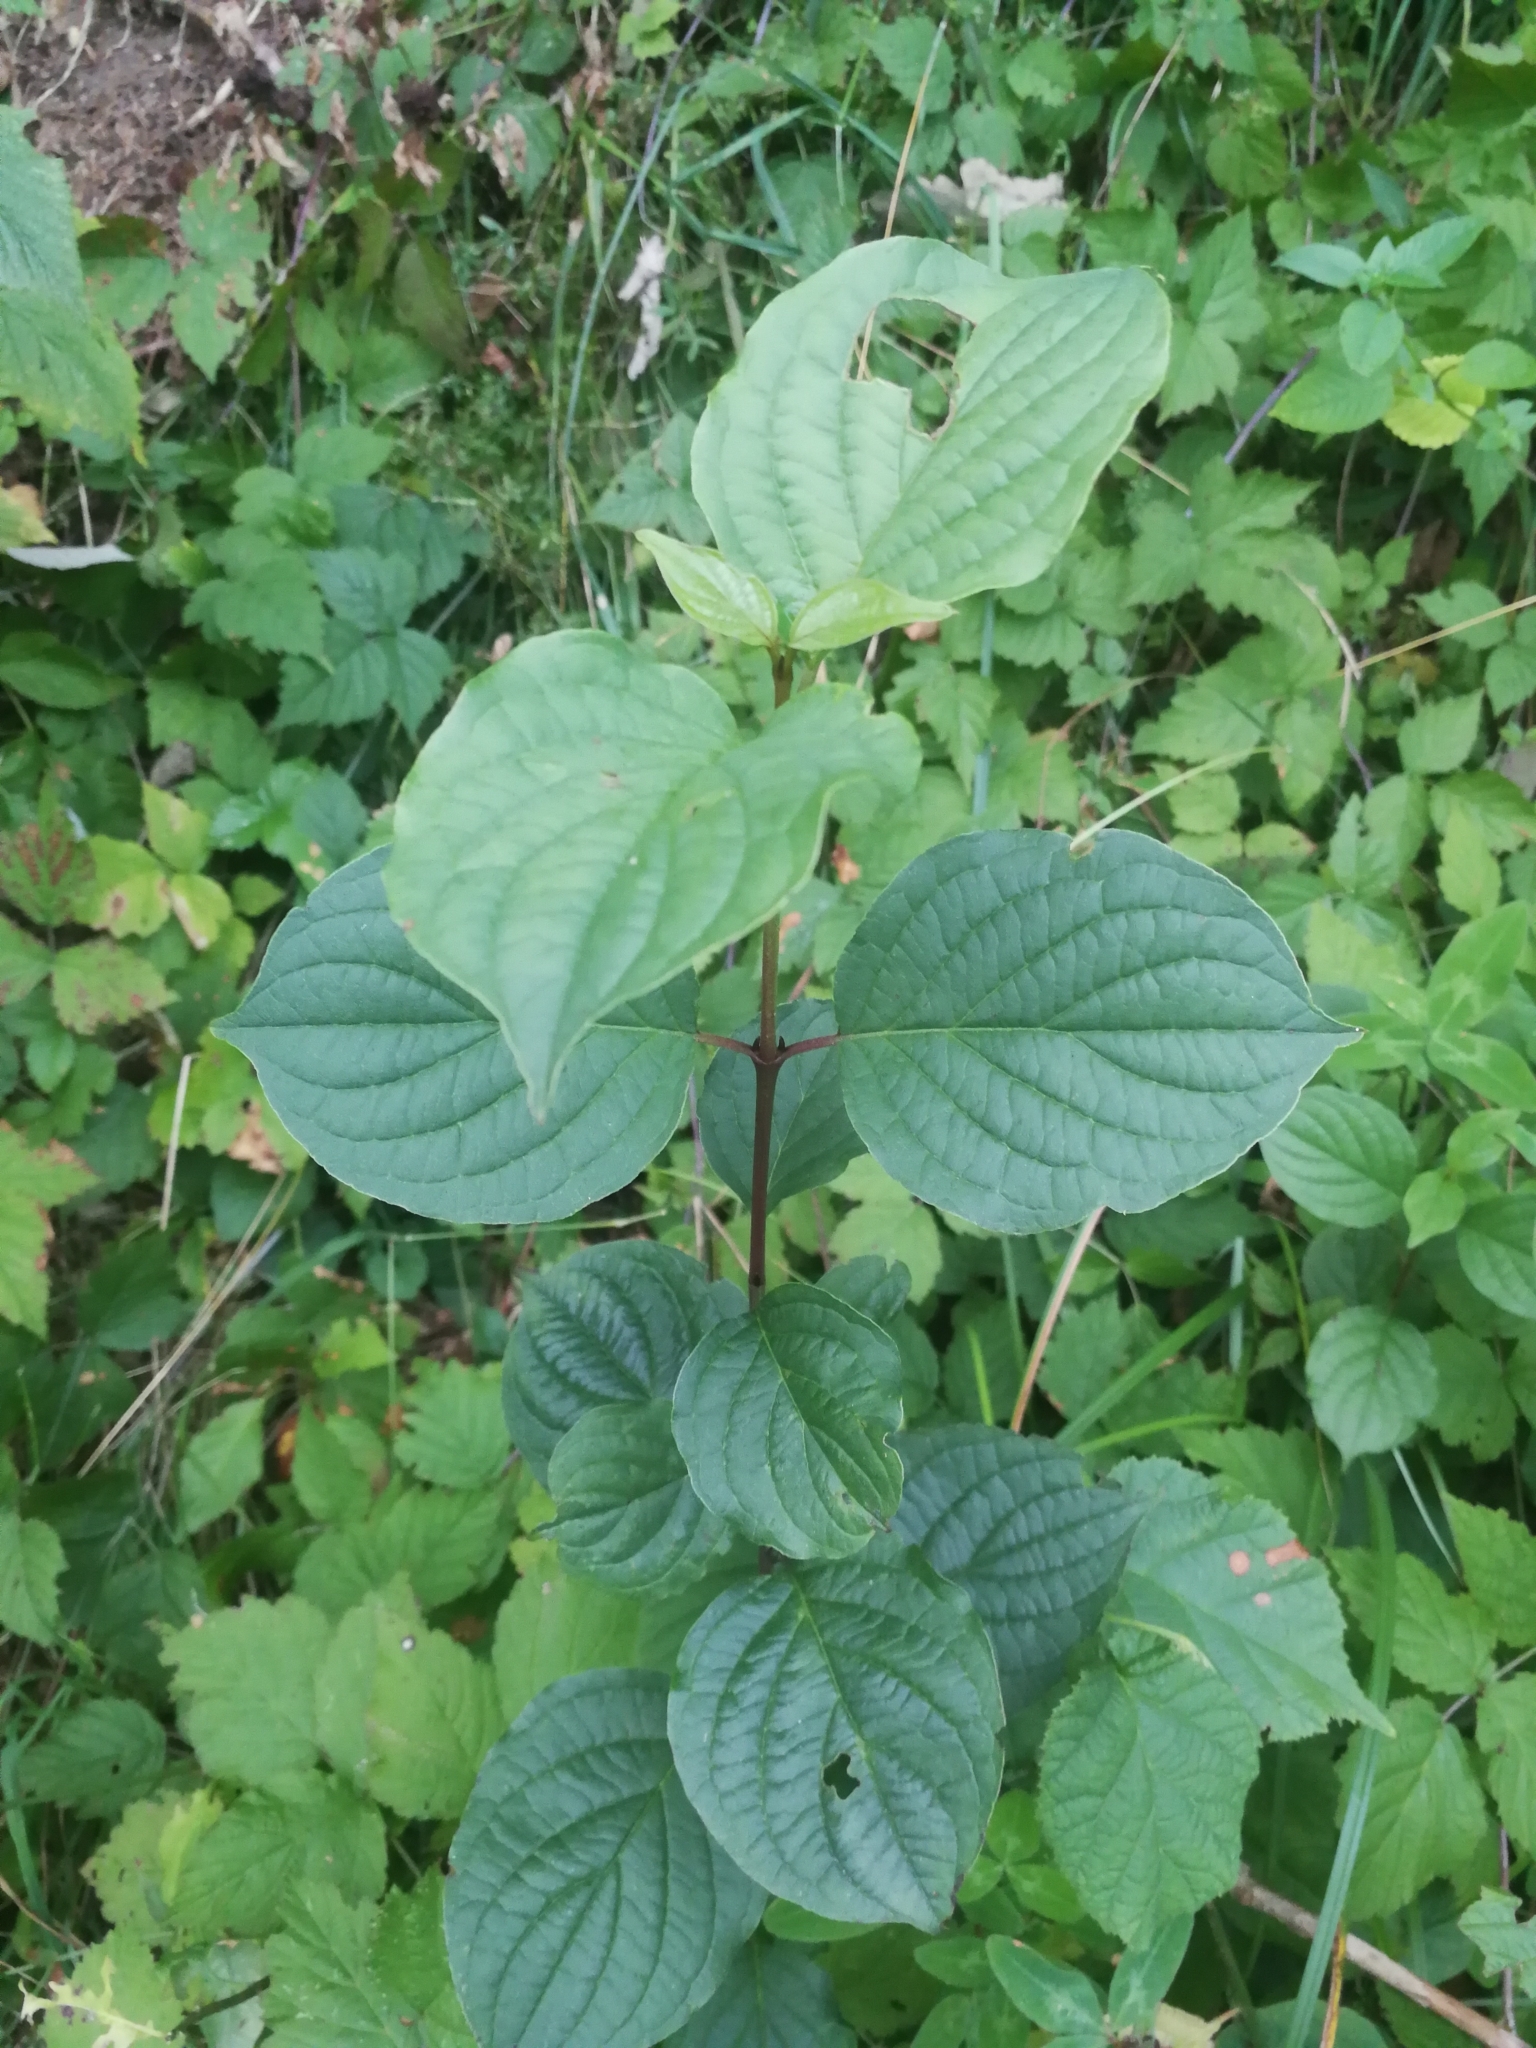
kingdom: Plantae
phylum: Tracheophyta
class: Magnoliopsida
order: Cornales
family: Cornaceae
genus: Cornus
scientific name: Cornus sanguinea
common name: Dogwood
